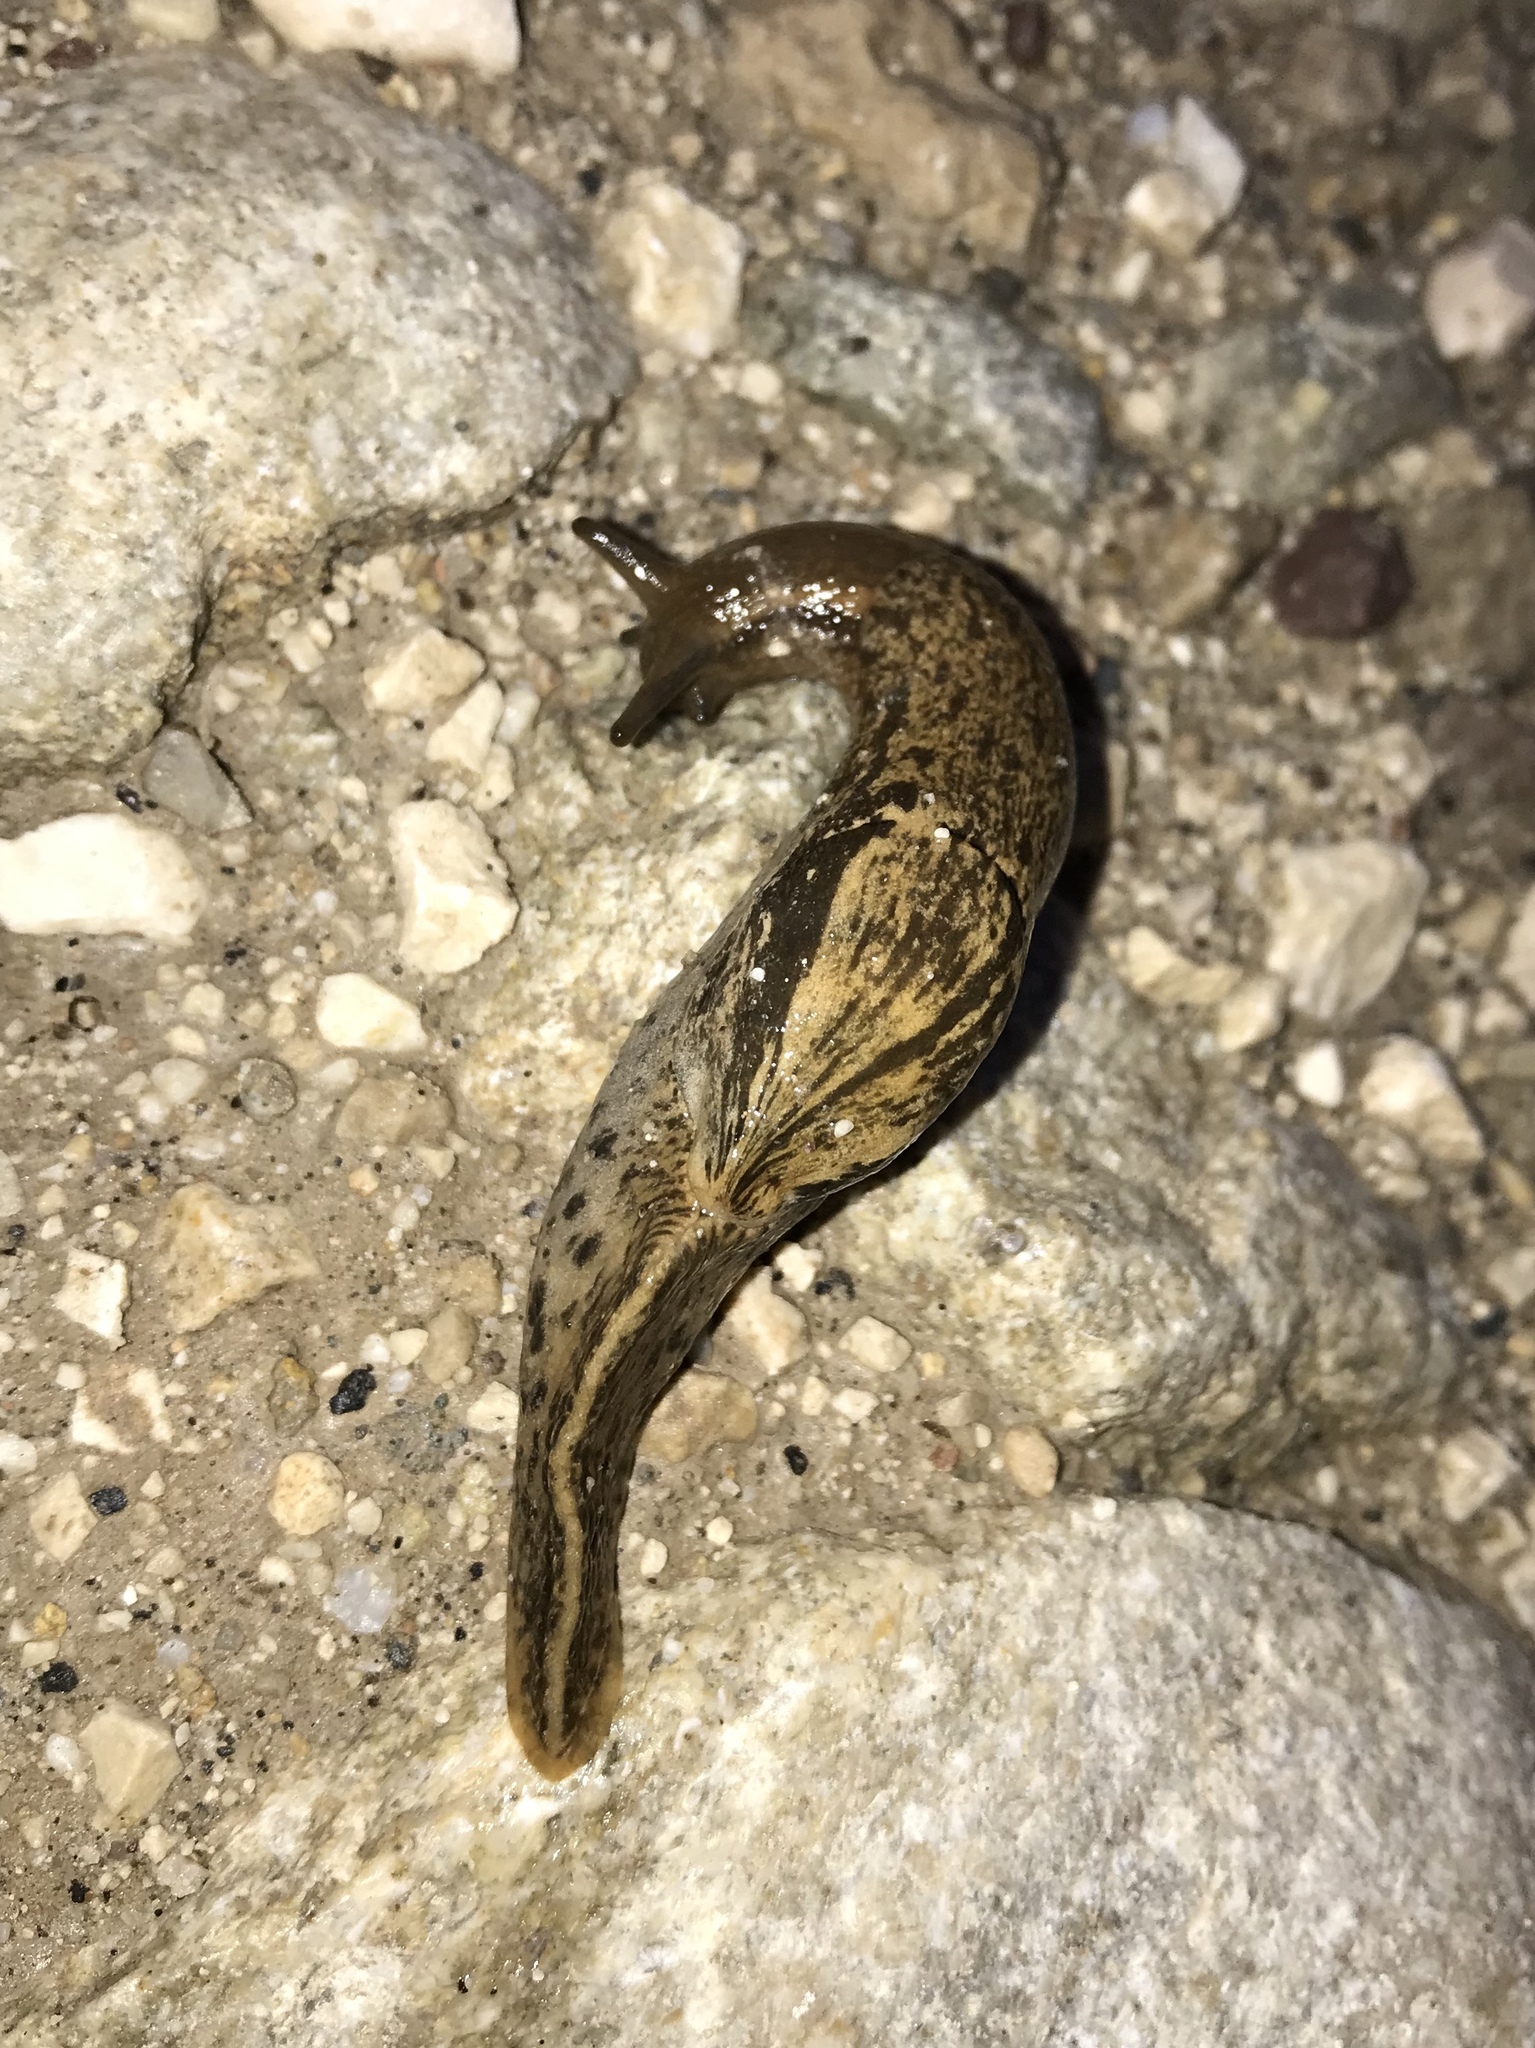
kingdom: Animalia
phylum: Mollusca
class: Gastropoda
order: Stylommatophora
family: Parmacellidae
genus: Candaharia
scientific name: Candaharia rutellum
